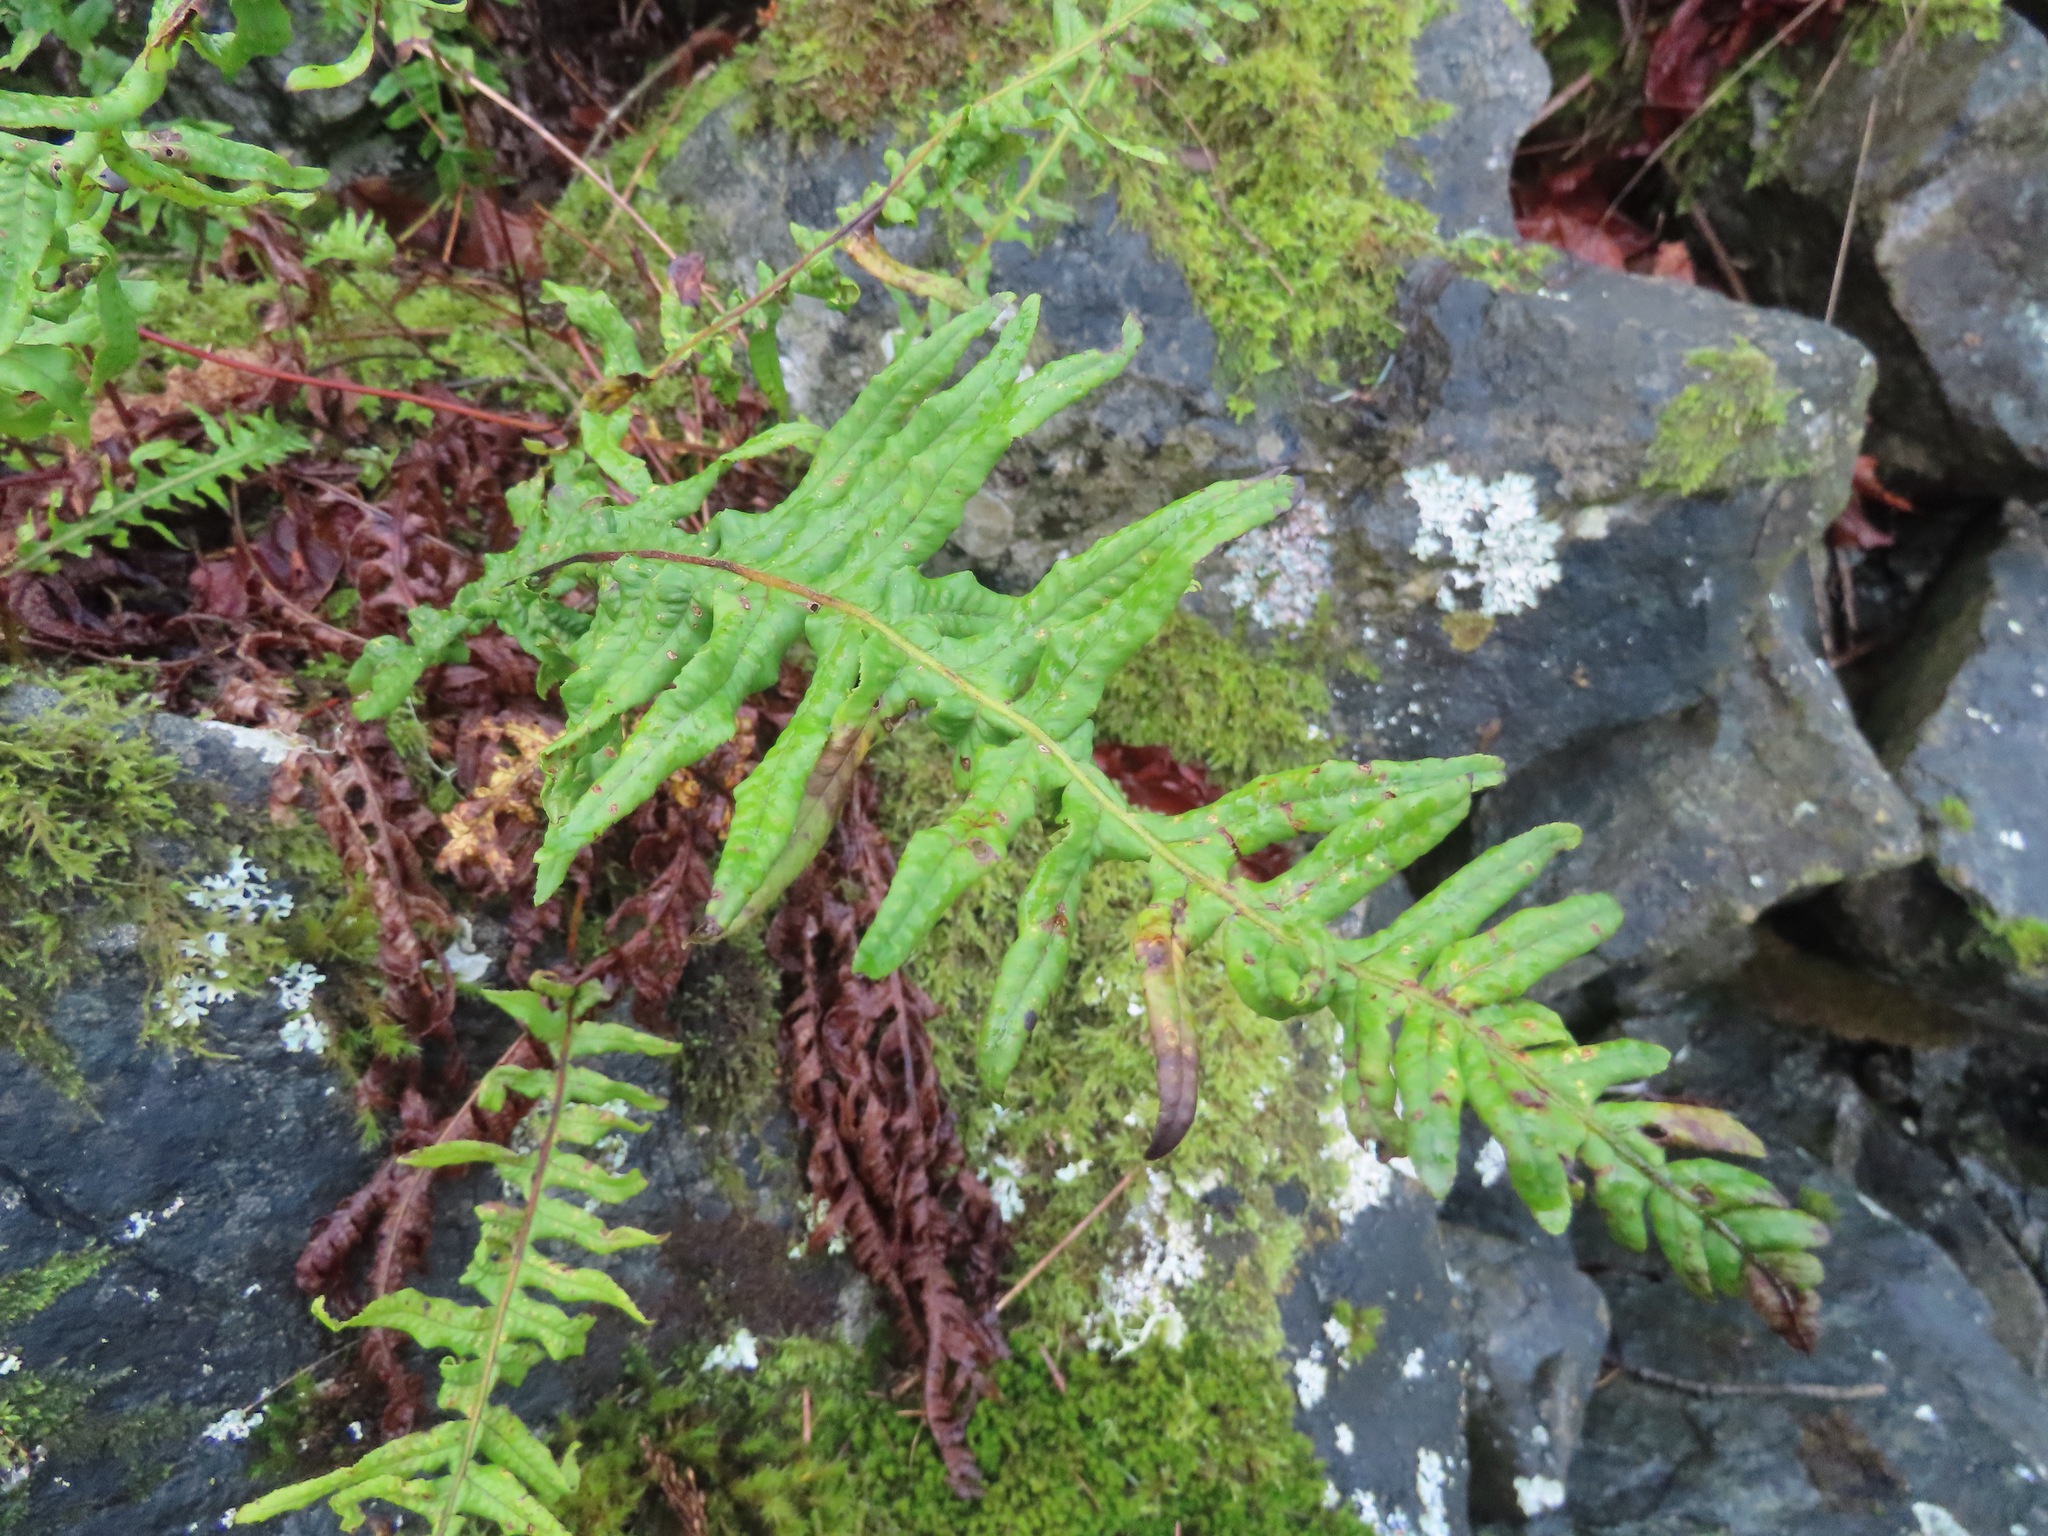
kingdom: Plantae
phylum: Tracheophyta
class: Polypodiopsida
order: Polypodiales
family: Polypodiaceae
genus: Polypodium
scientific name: Polypodium glycyrrhiza
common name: Licorice fern
